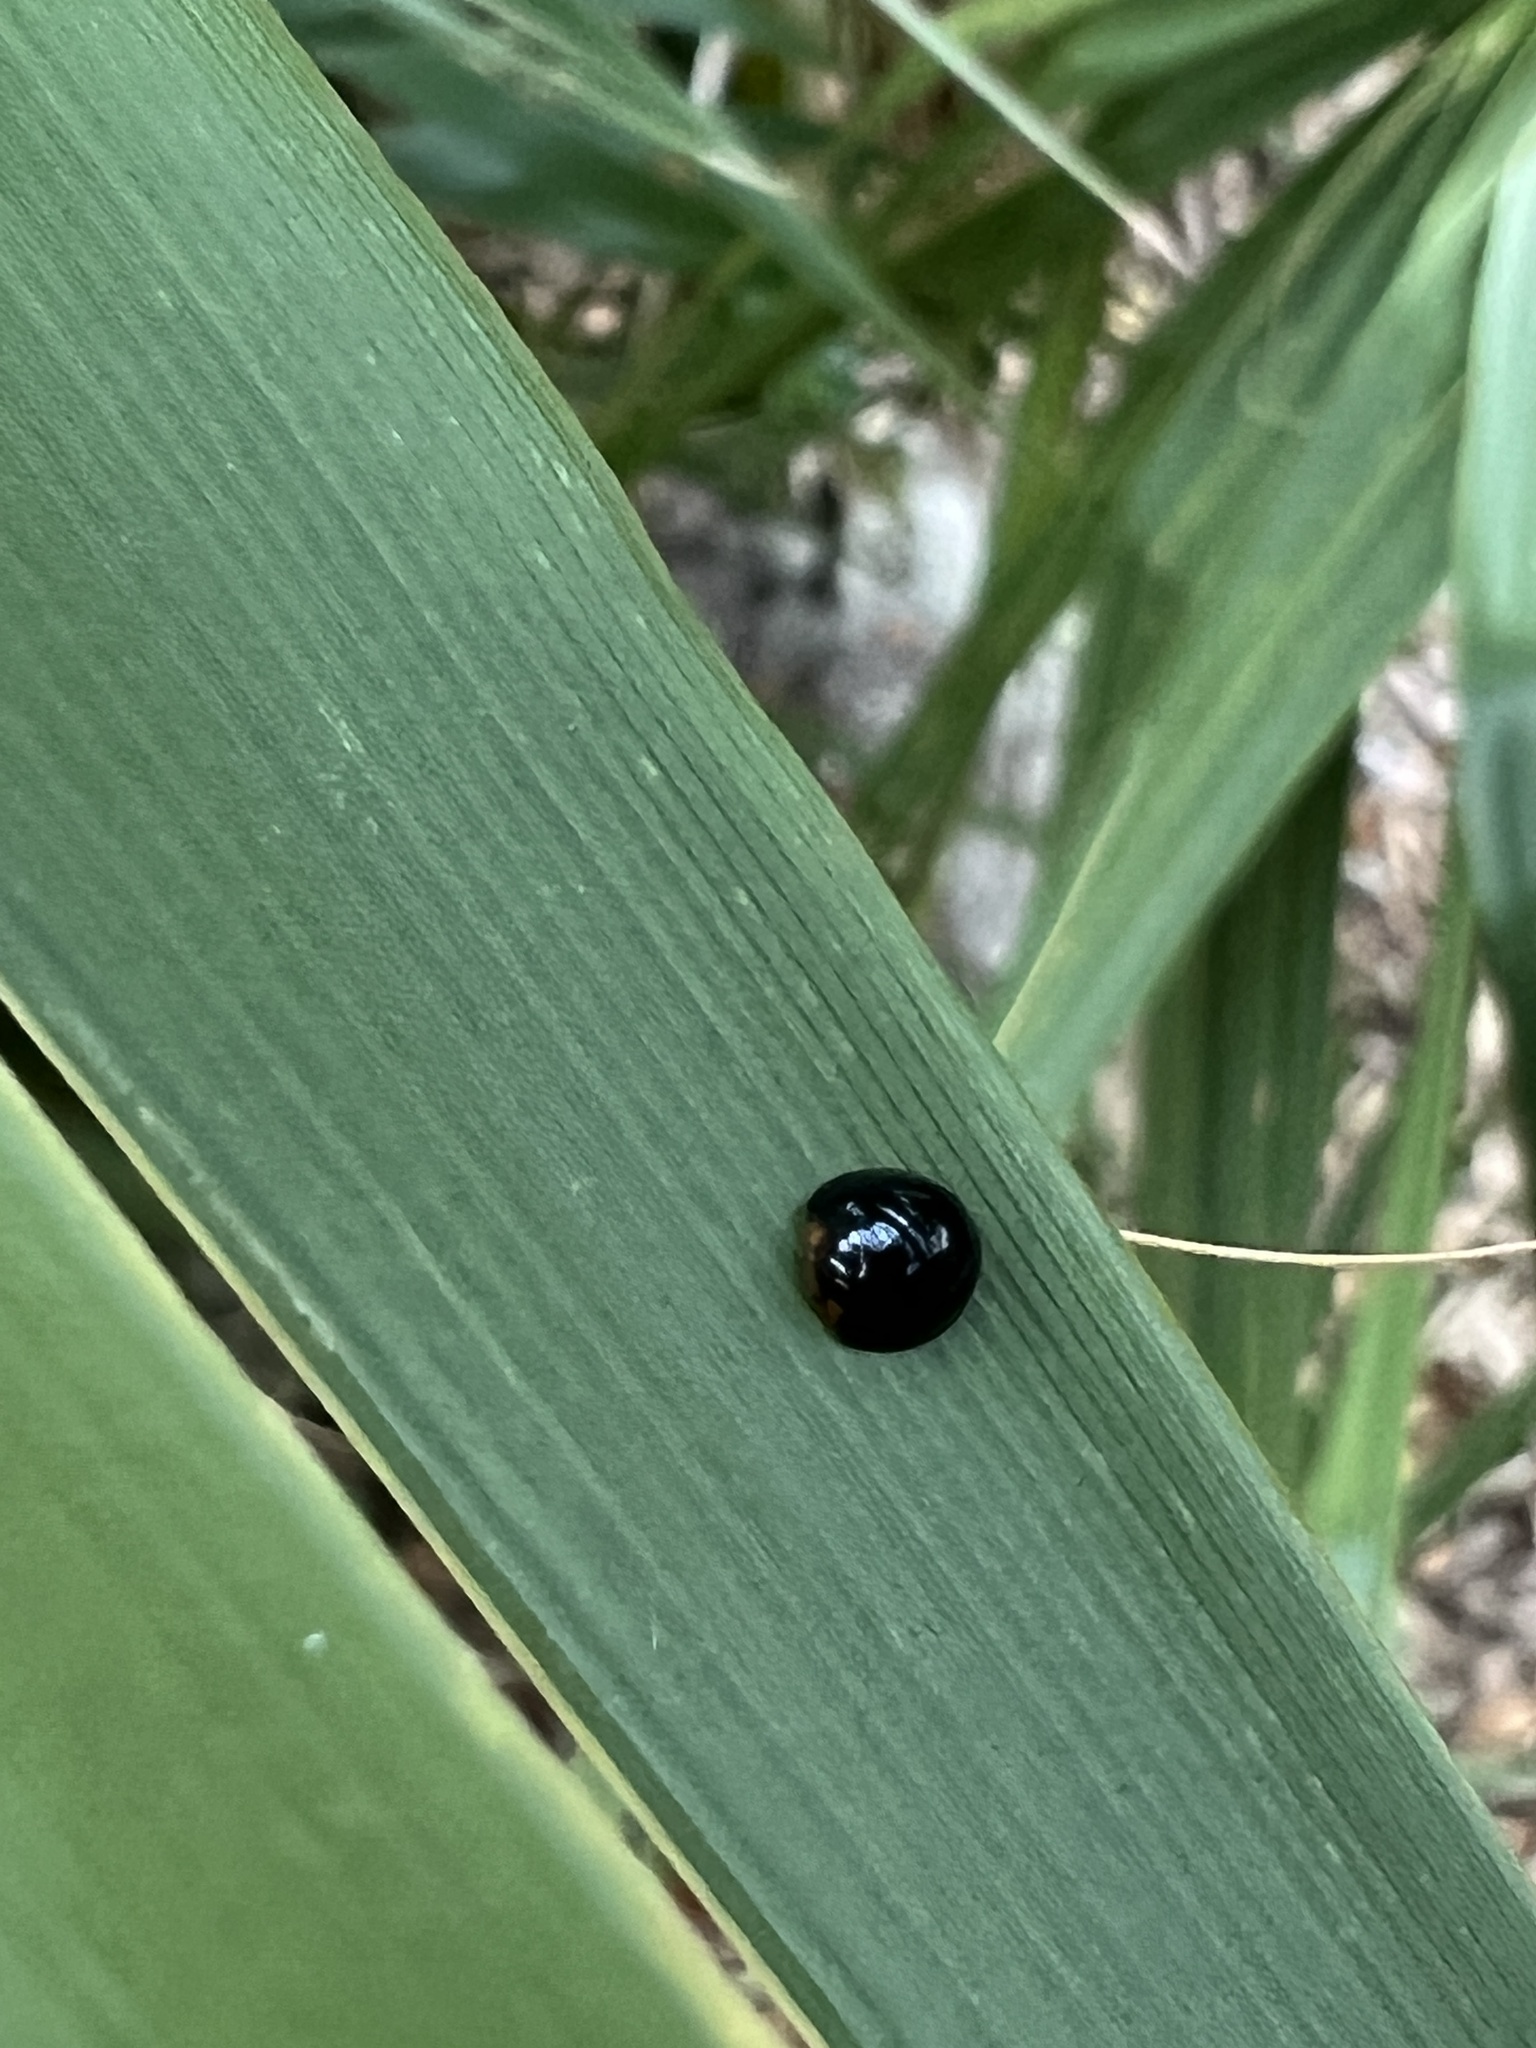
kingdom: Animalia
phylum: Arthropoda
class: Insecta
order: Coleoptera
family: Coccinellidae
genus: Chilocorus
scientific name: Chilocorus nigritus
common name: Ladybird beetle
